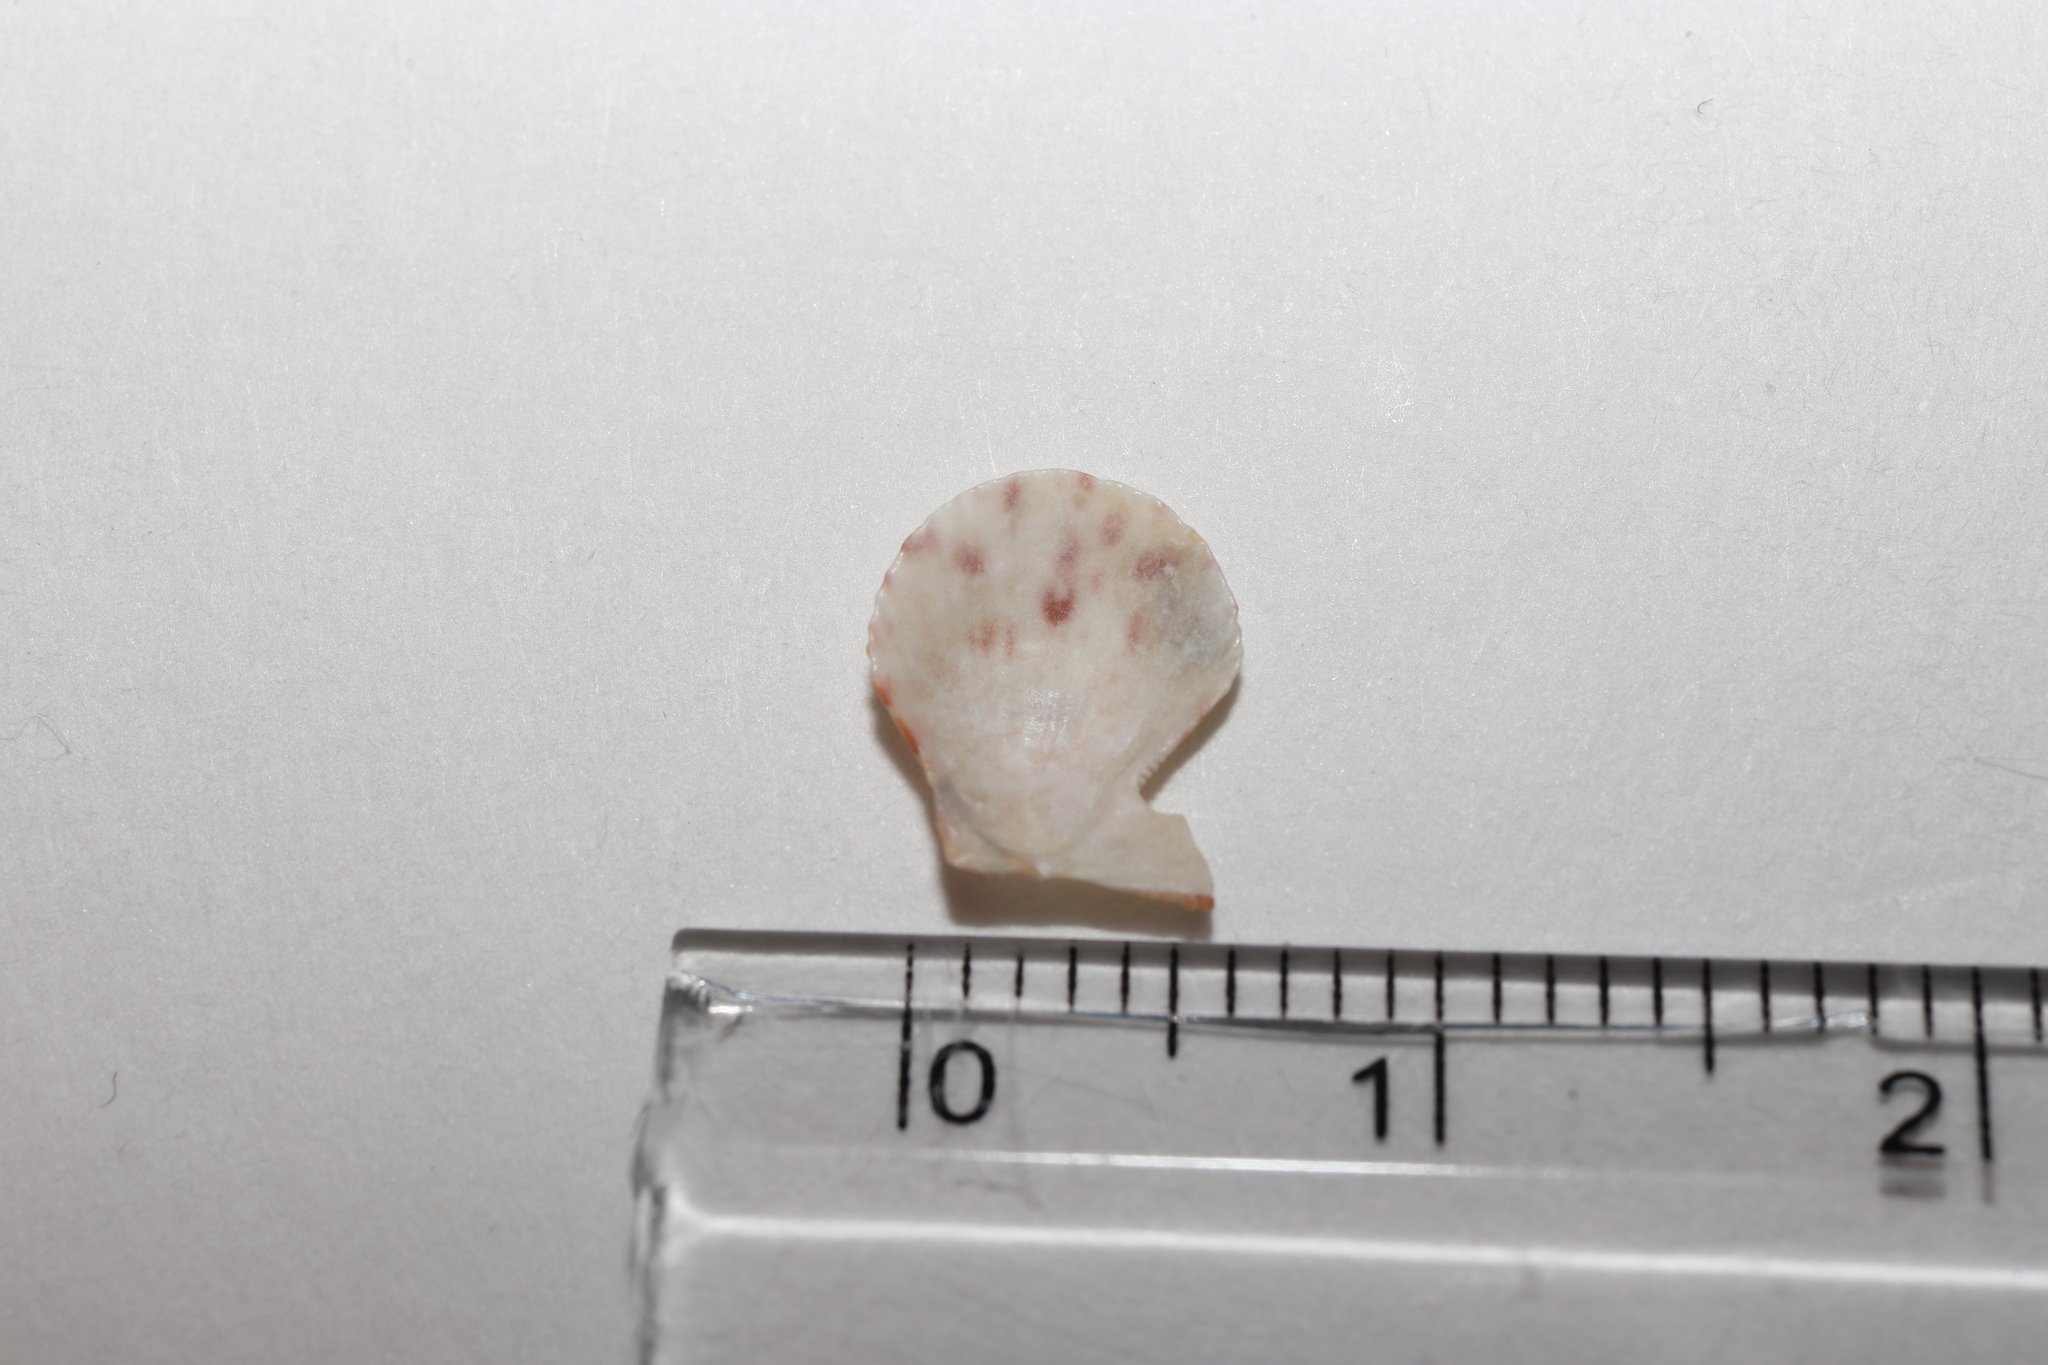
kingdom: Animalia
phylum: Mollusca
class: Bivalvia
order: Pectinida
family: Pectinidae
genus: Laevichlamys
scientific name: Laevichlamys cuneata
